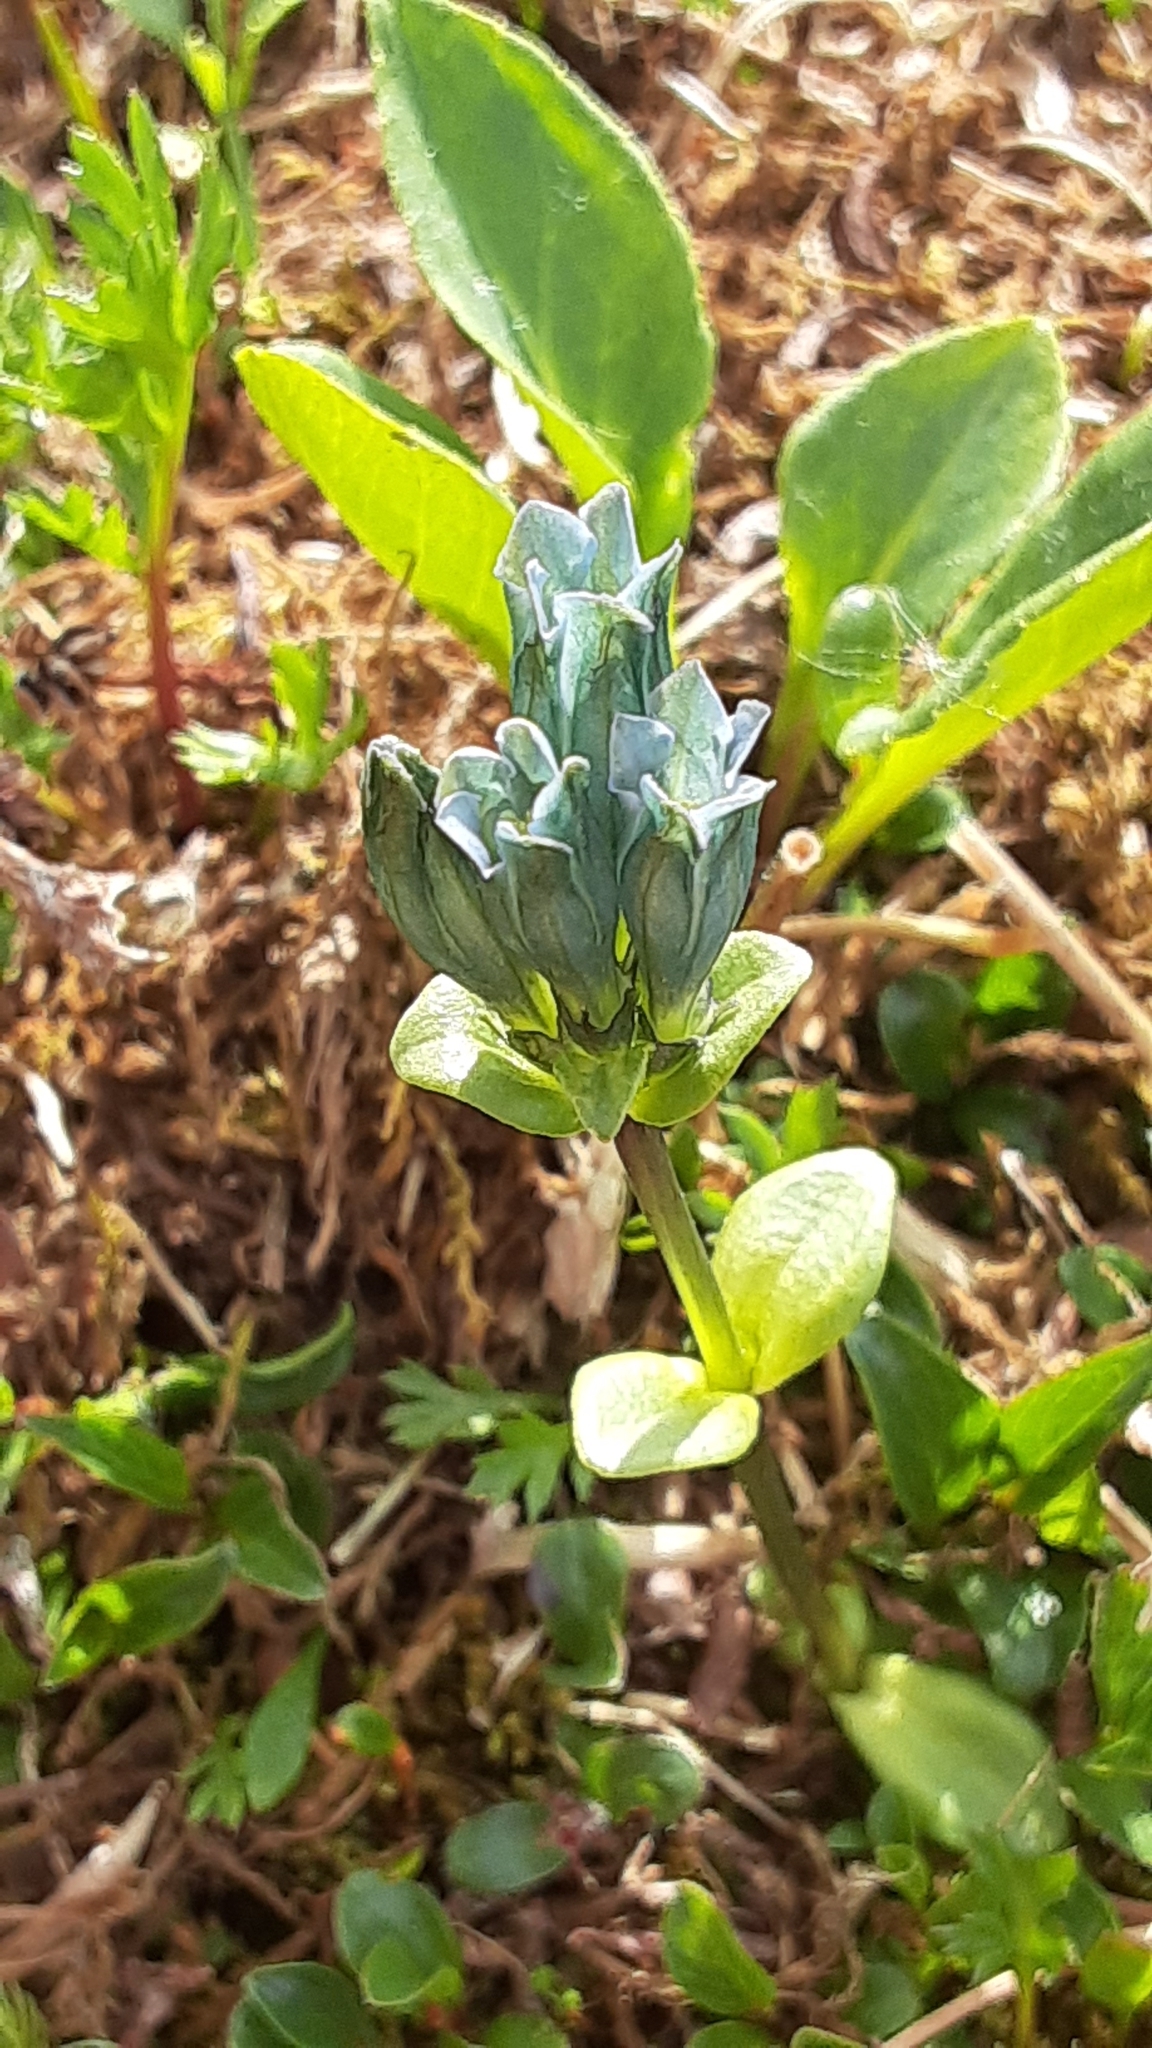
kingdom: Plantae
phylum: Tracheophyta
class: Magnoliopsida
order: Gentianales
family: Gentianaceae
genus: Gentiana
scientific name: Gentiana glauca
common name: Alpine gentian
